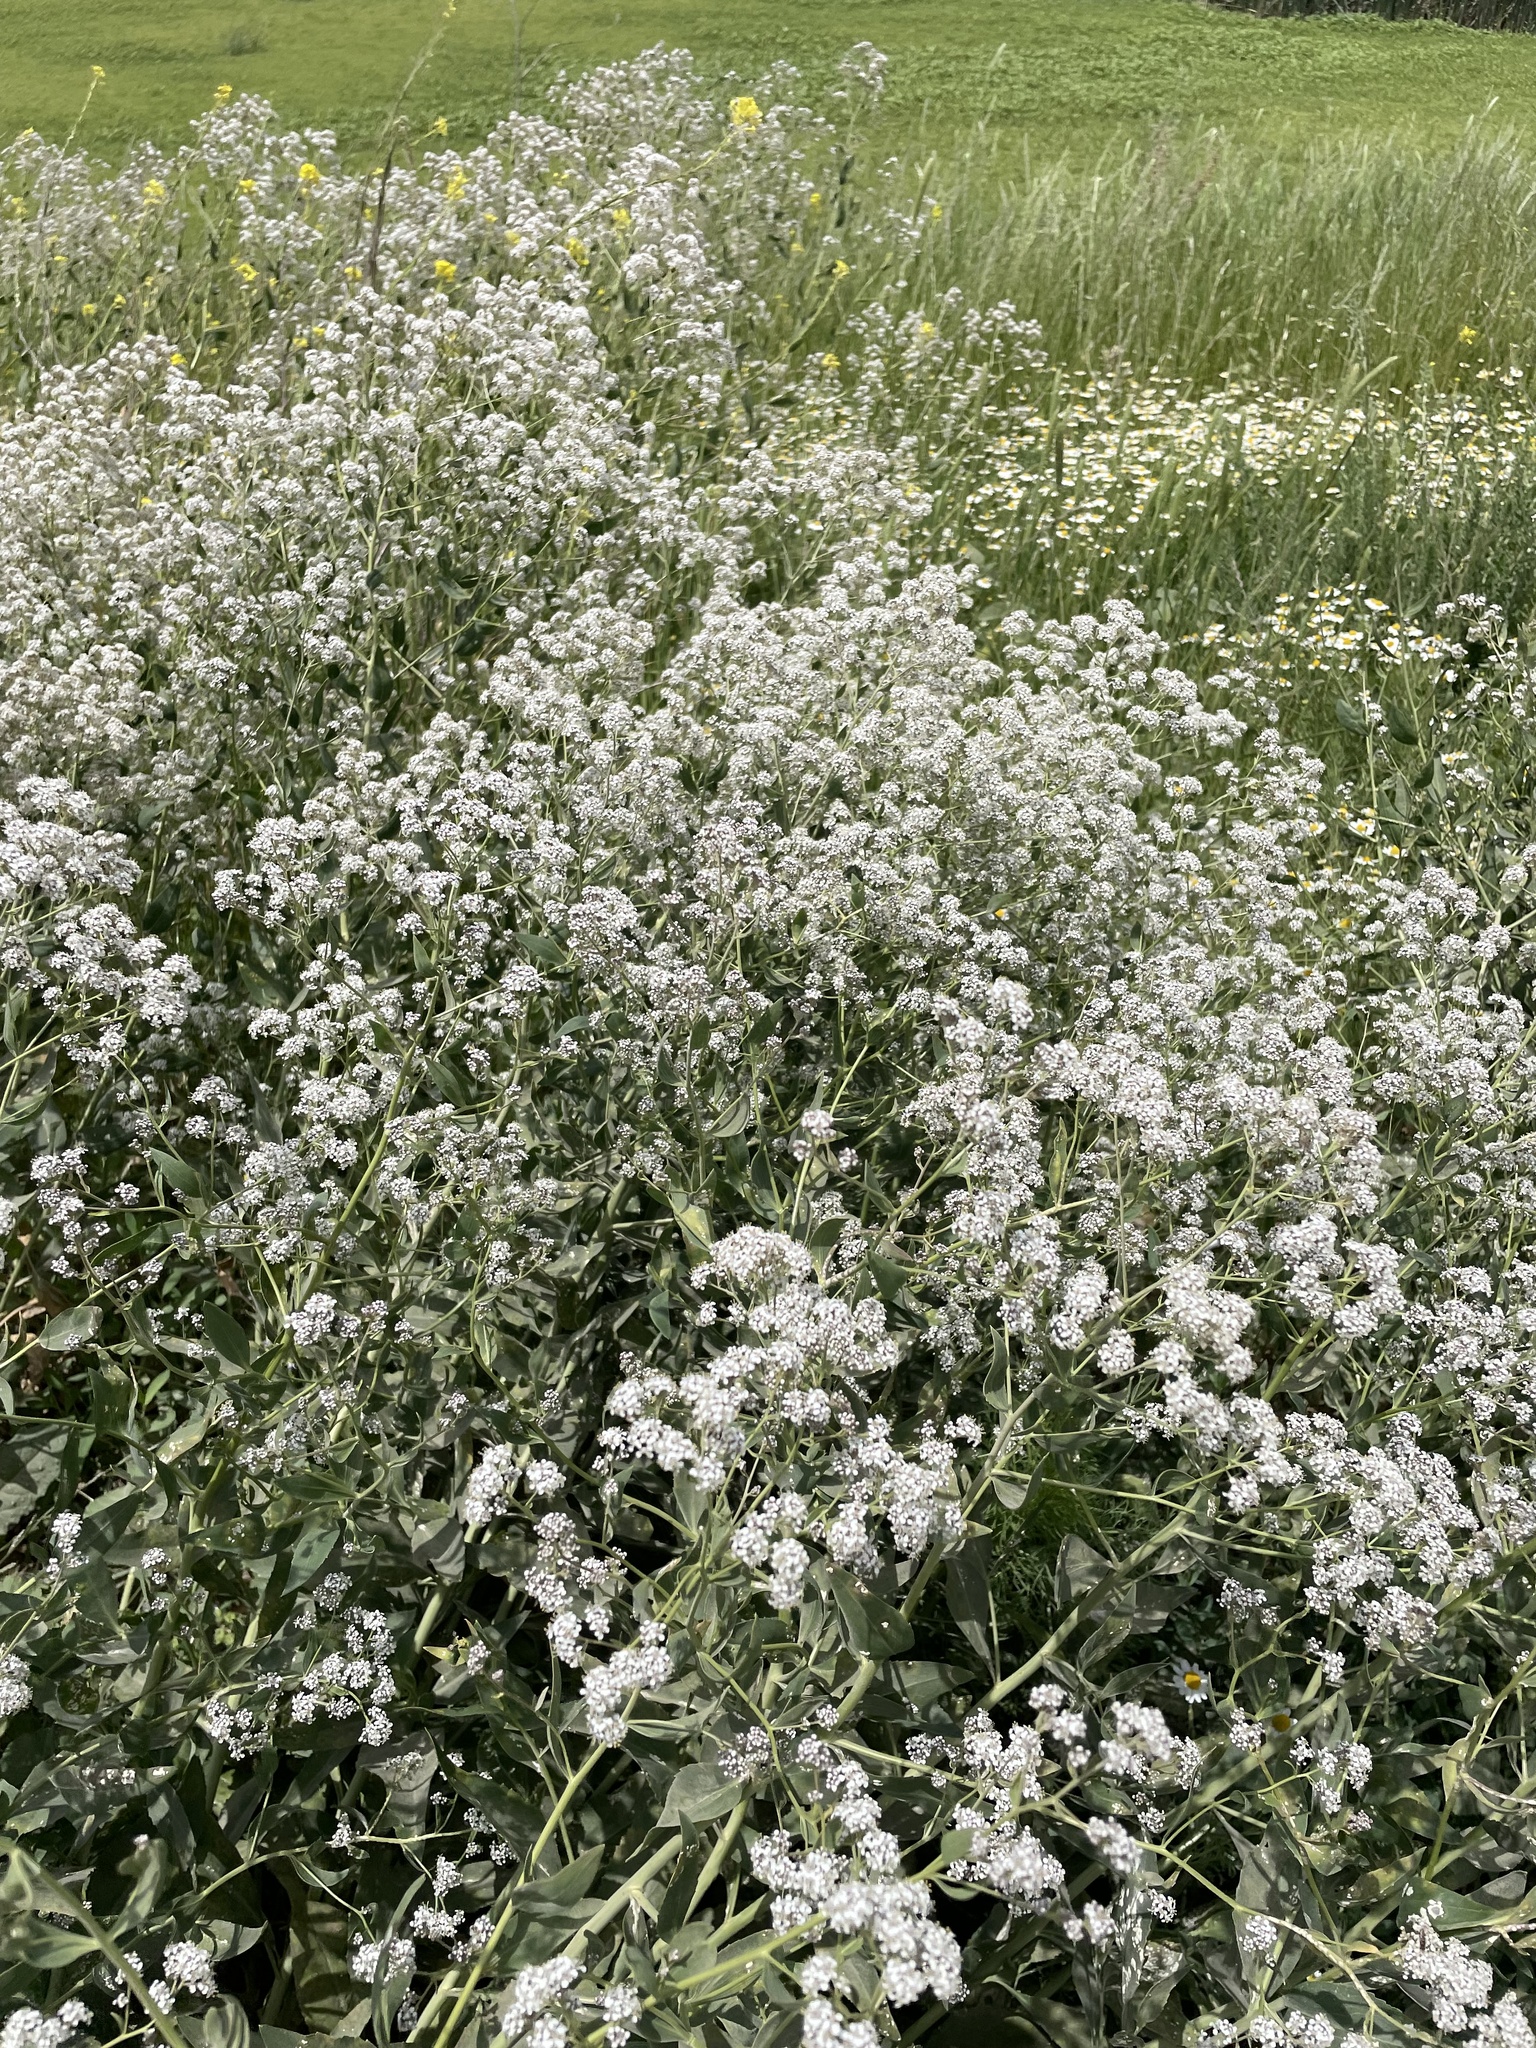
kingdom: Plantae
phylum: Tracheophyta
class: Magnoliopsida
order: Brassicales
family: Brassicaceae
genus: Lepidium
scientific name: Lepidium latifolium
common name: Dittander
